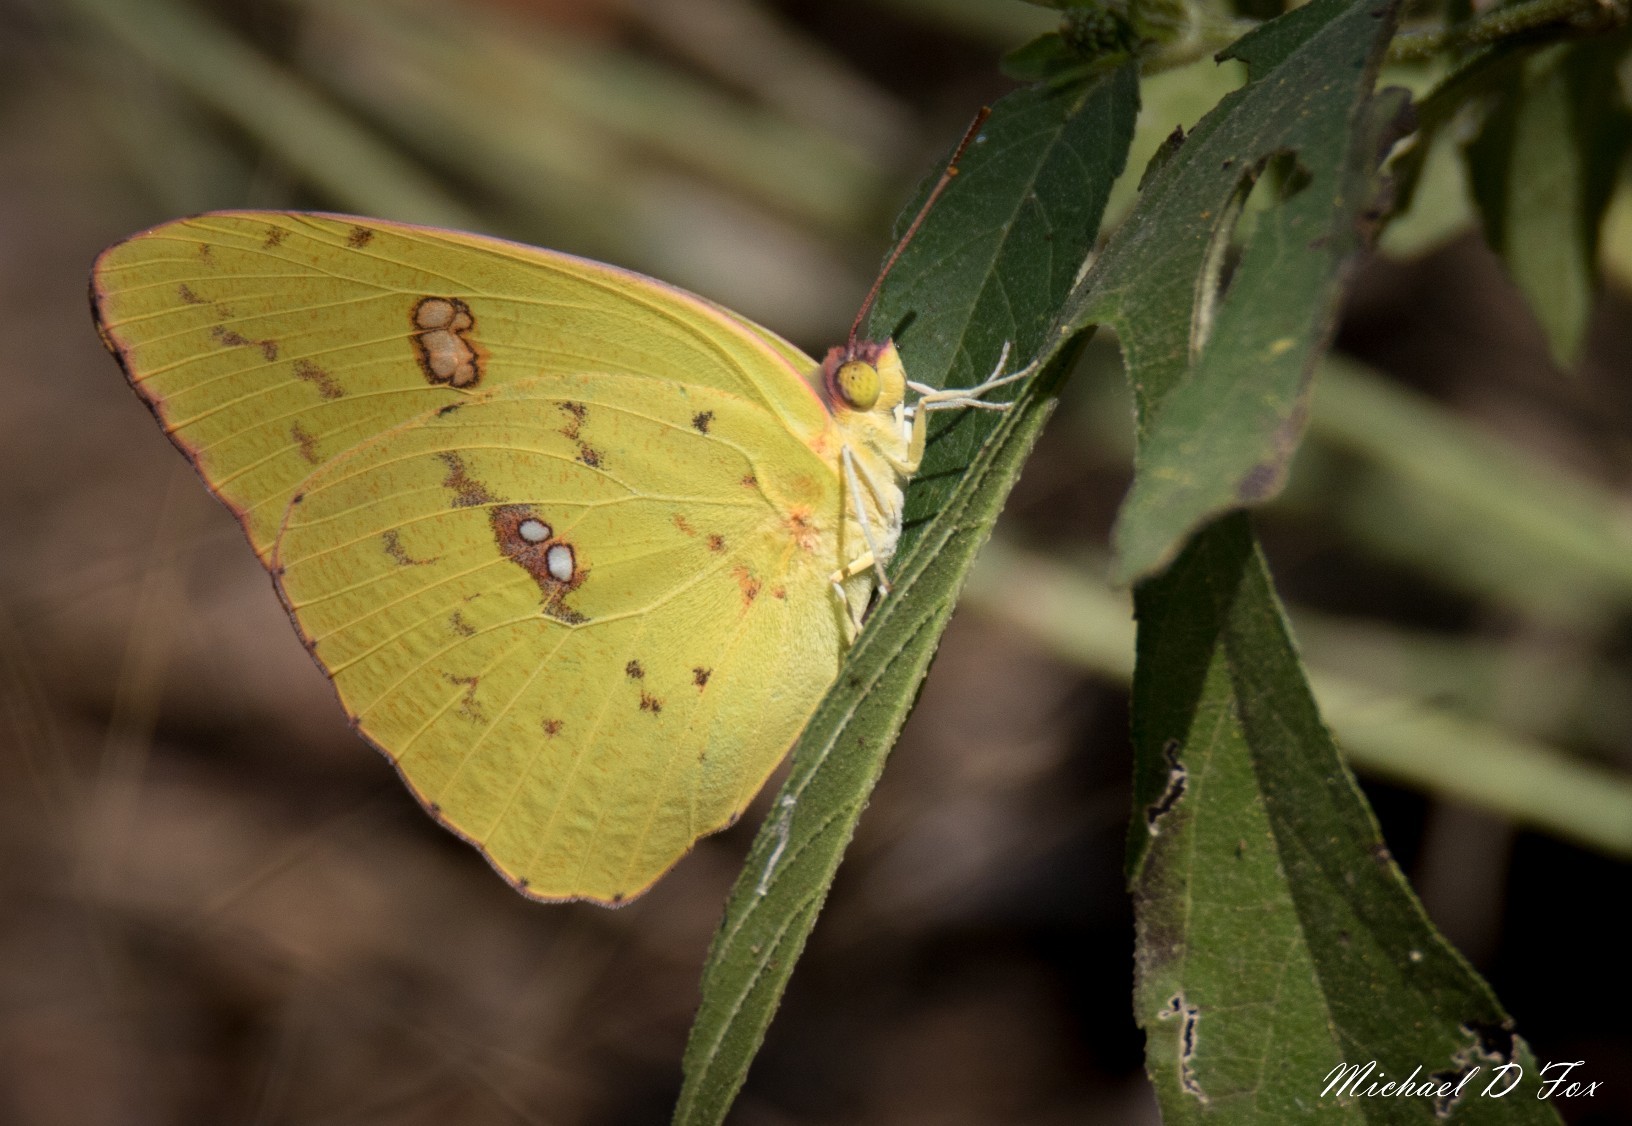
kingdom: Animalia
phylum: Arthropoda
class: Insecta
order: Lepidoptera
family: Pieridae
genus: Phoebis
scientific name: Phoebis sennae
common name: Cloudless sulphur
